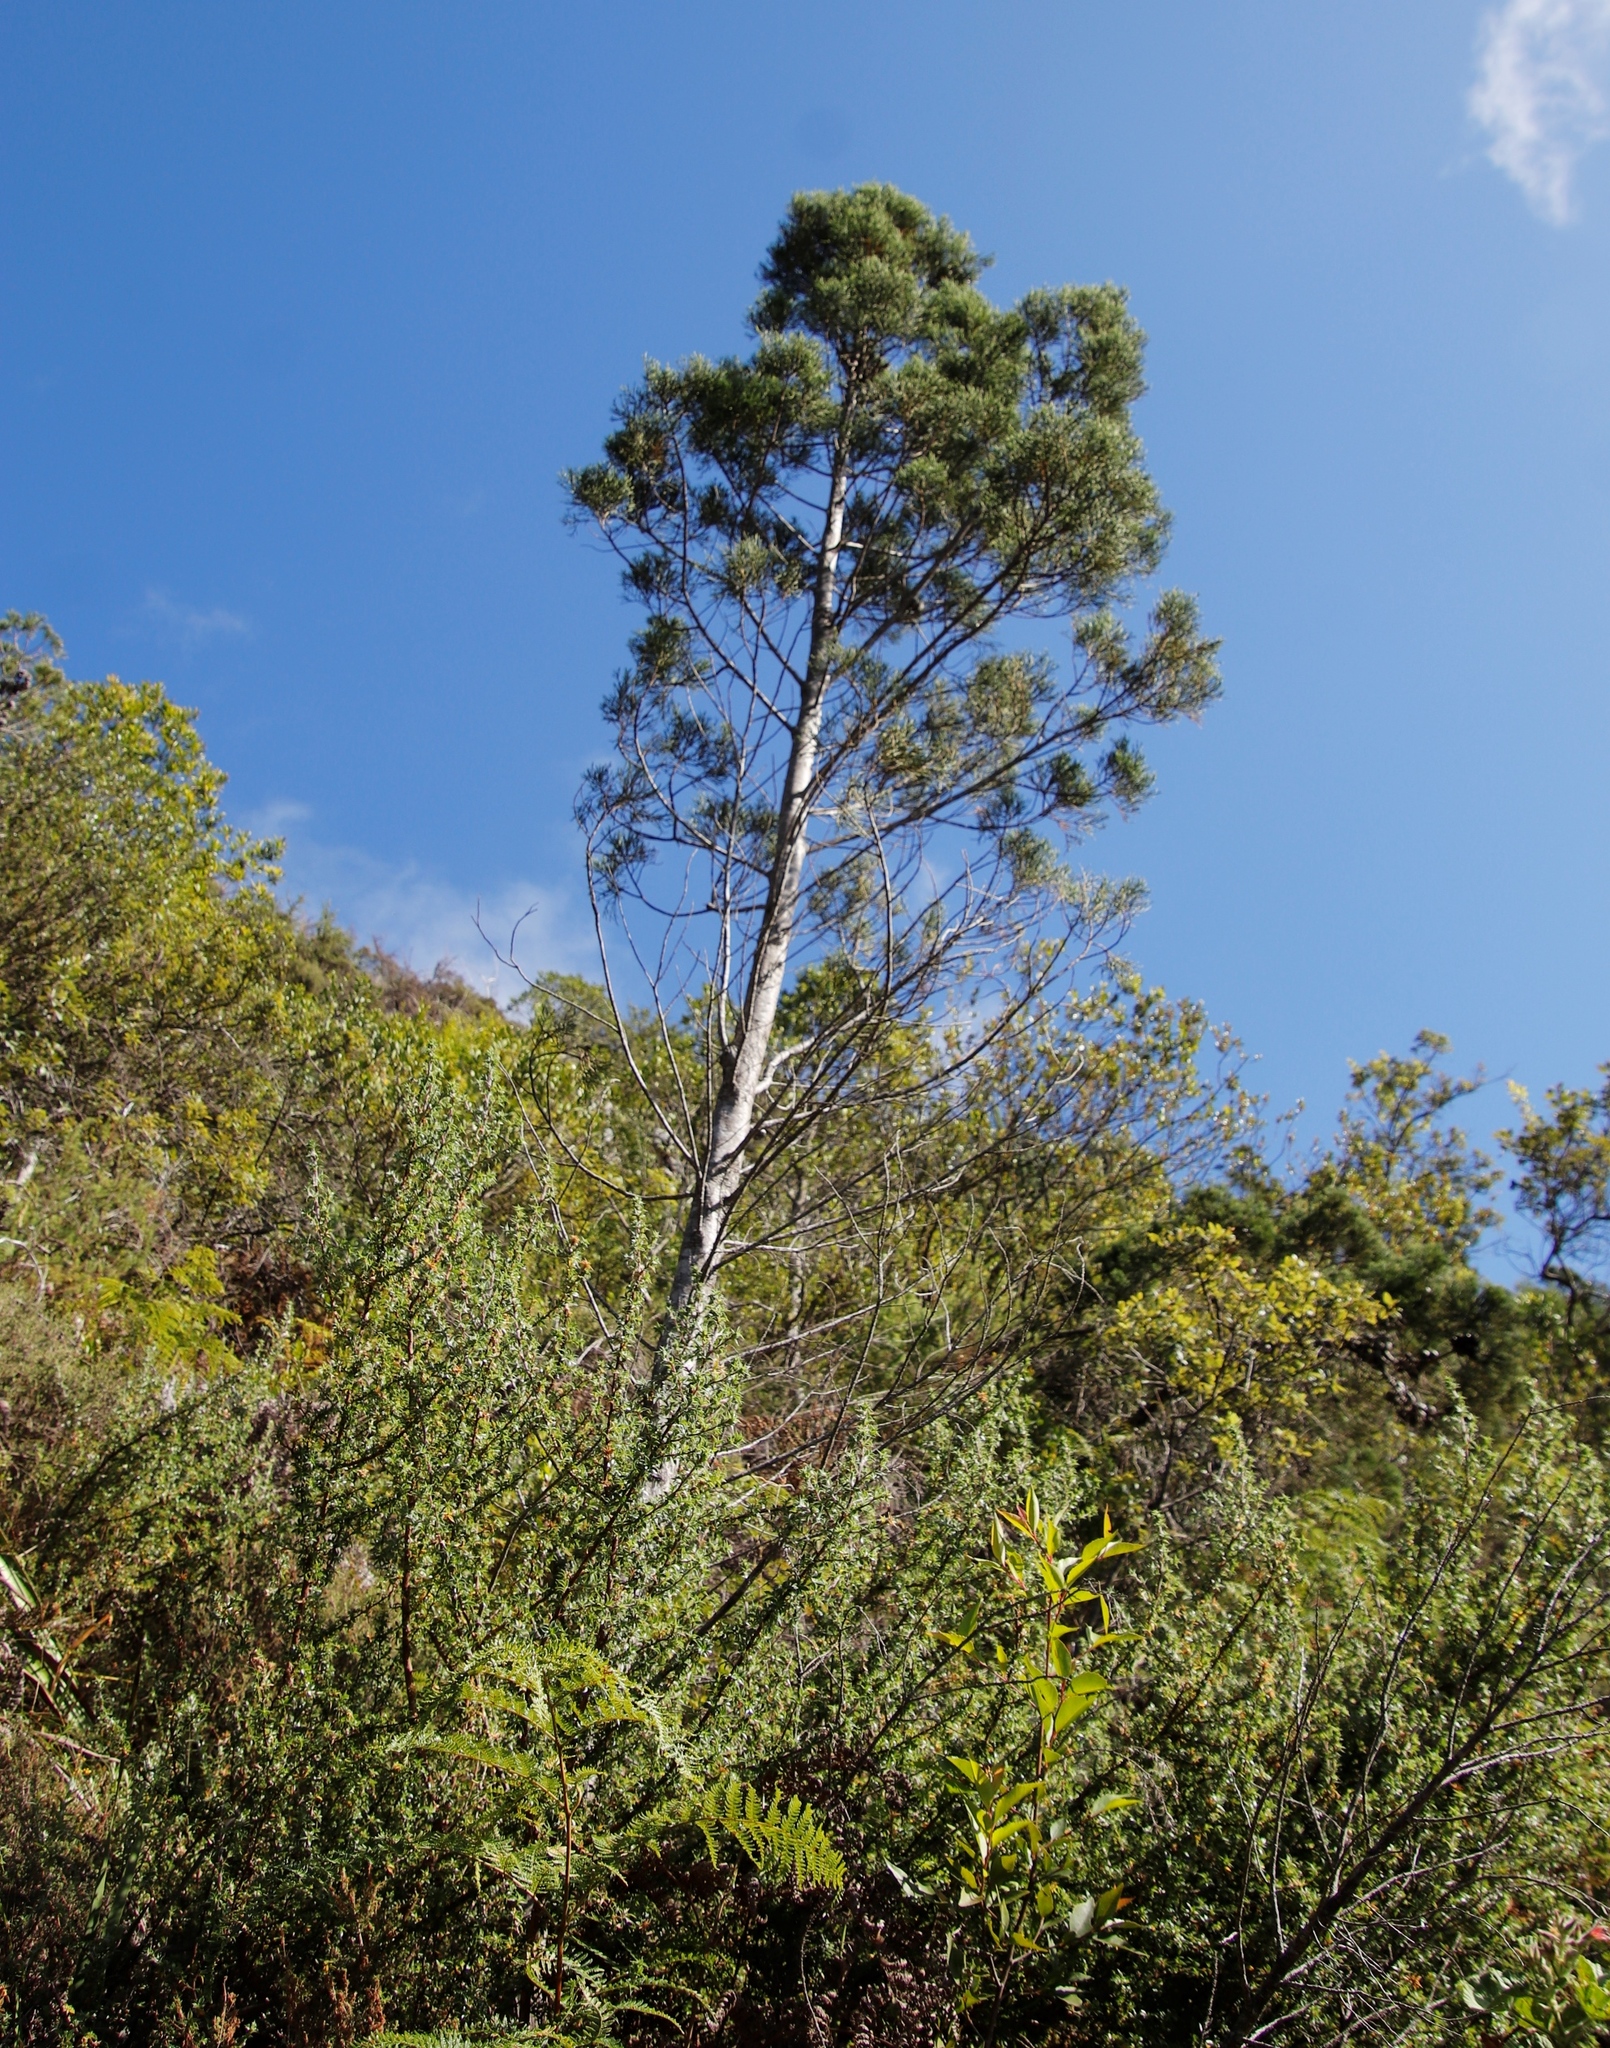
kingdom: Plantae
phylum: Tracheophyta
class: Pinopsida
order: Pinales
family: Cupressaceae
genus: Widdringtonia
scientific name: Widdringtonia nodiflora
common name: Cape cypress
